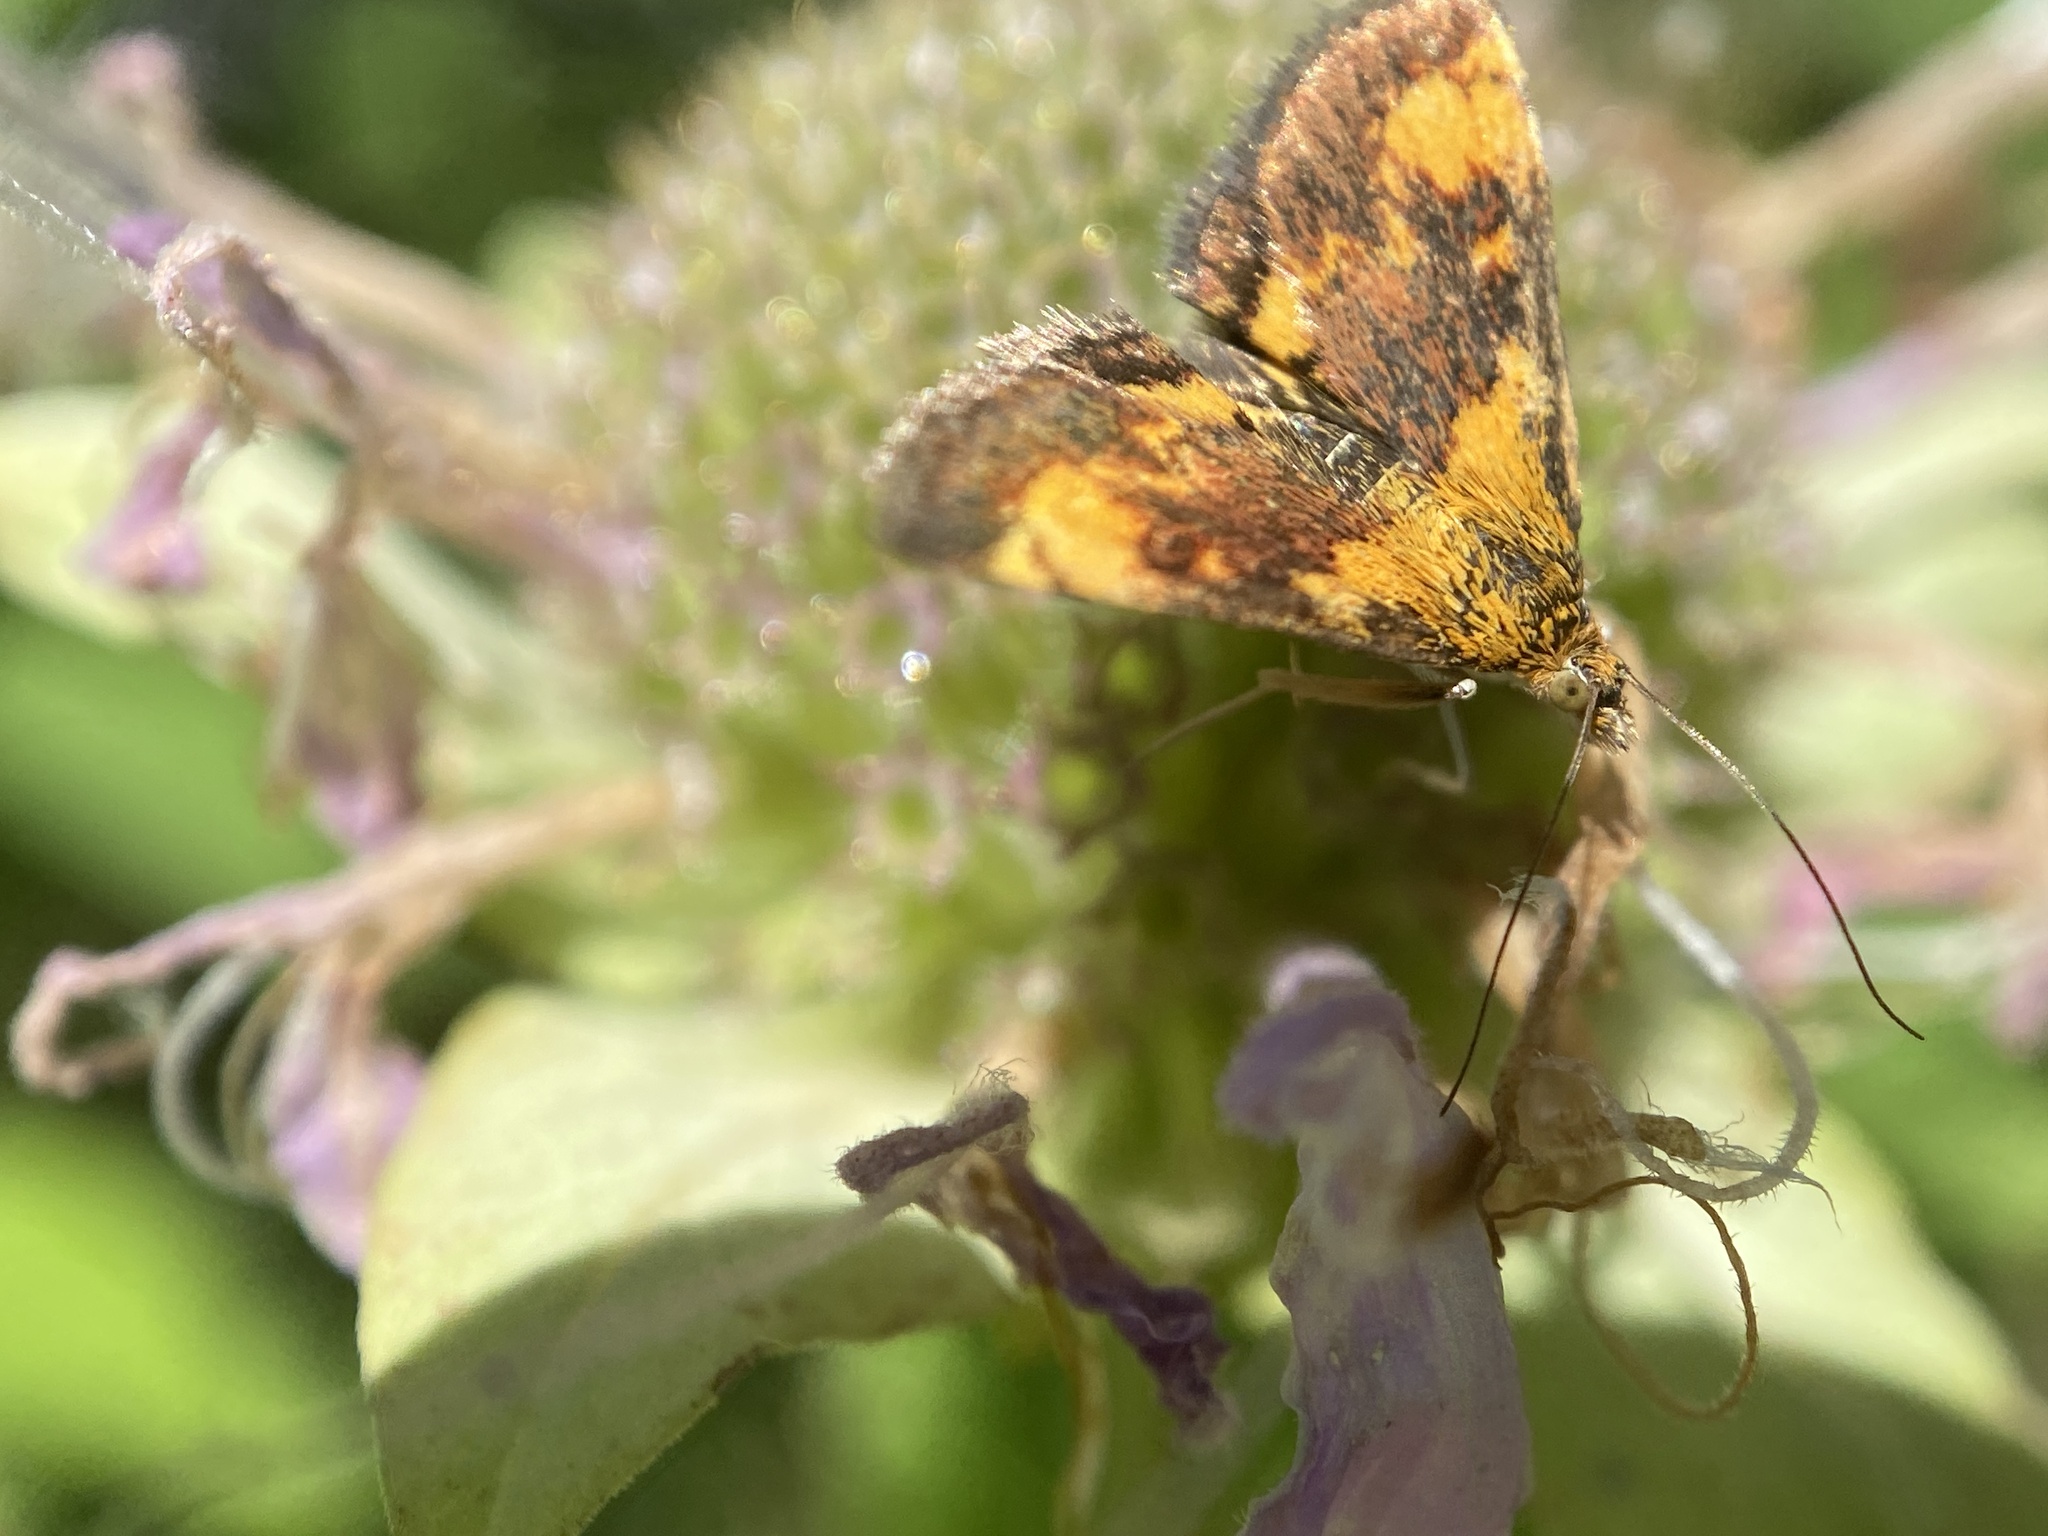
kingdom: Animalia
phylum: Arthropoda
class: Insecta
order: Lepidoptera
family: Crambidae
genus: Pyrausta
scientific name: Pyrausta orphisalis
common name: Orange mint moth
